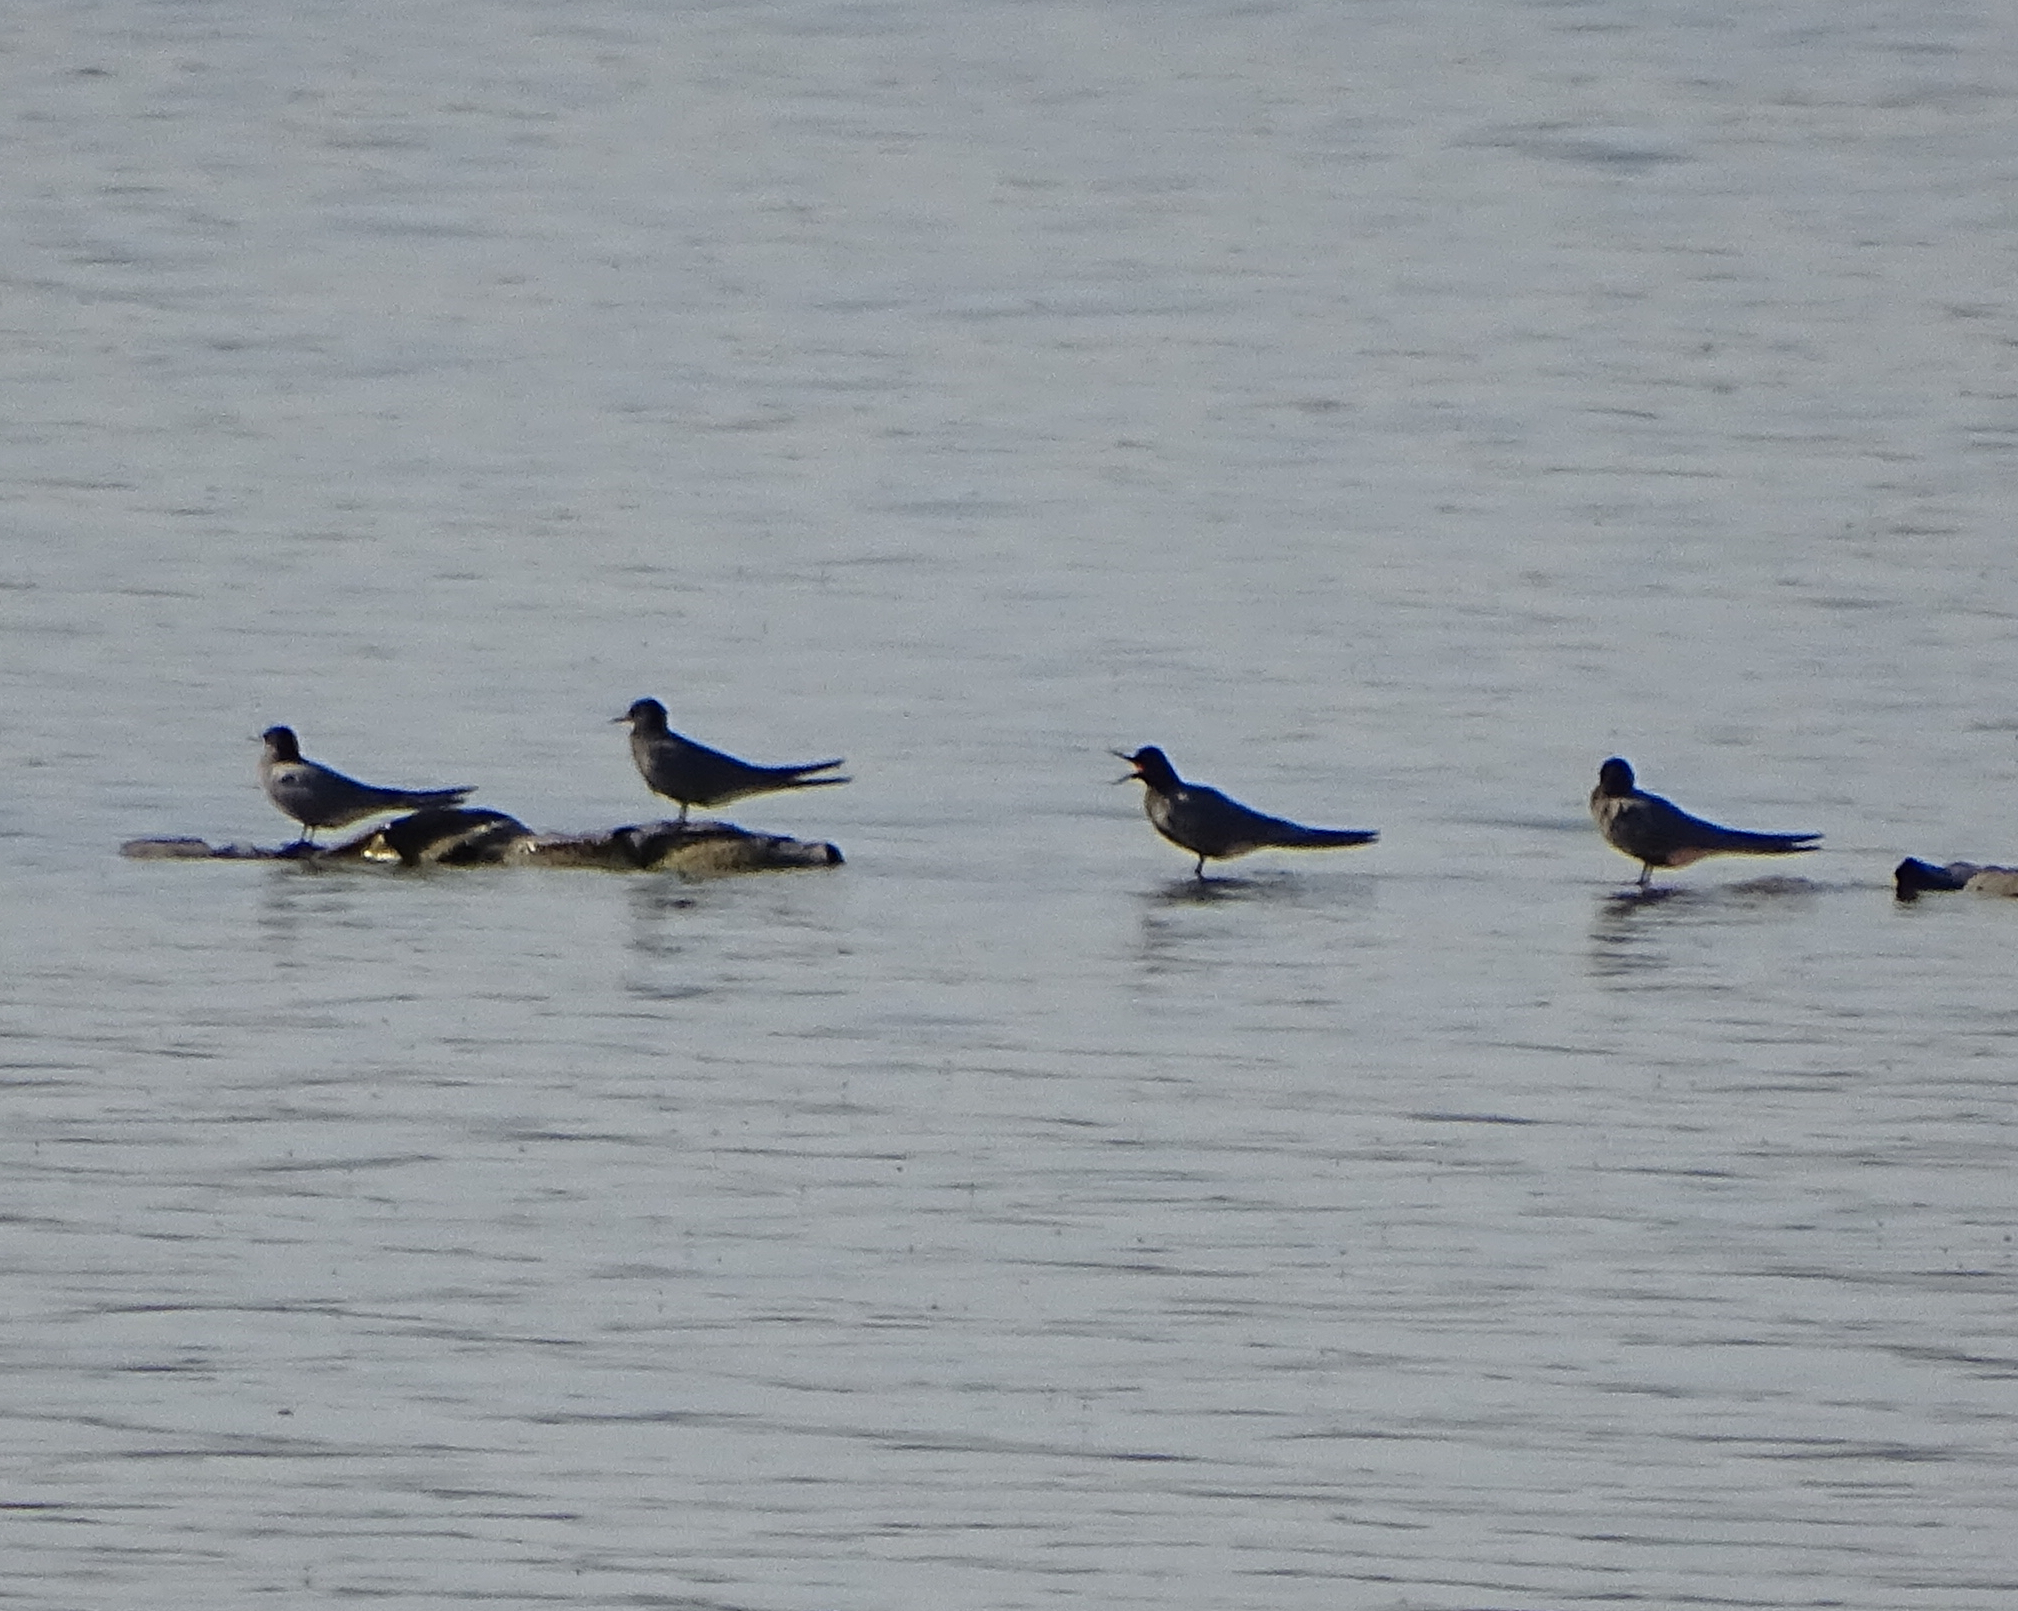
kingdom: Animalia
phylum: Chordata
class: Aves
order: Charadriiformes
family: Laridae
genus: Chlidonias
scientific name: Chlidonias niger
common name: Black tern
